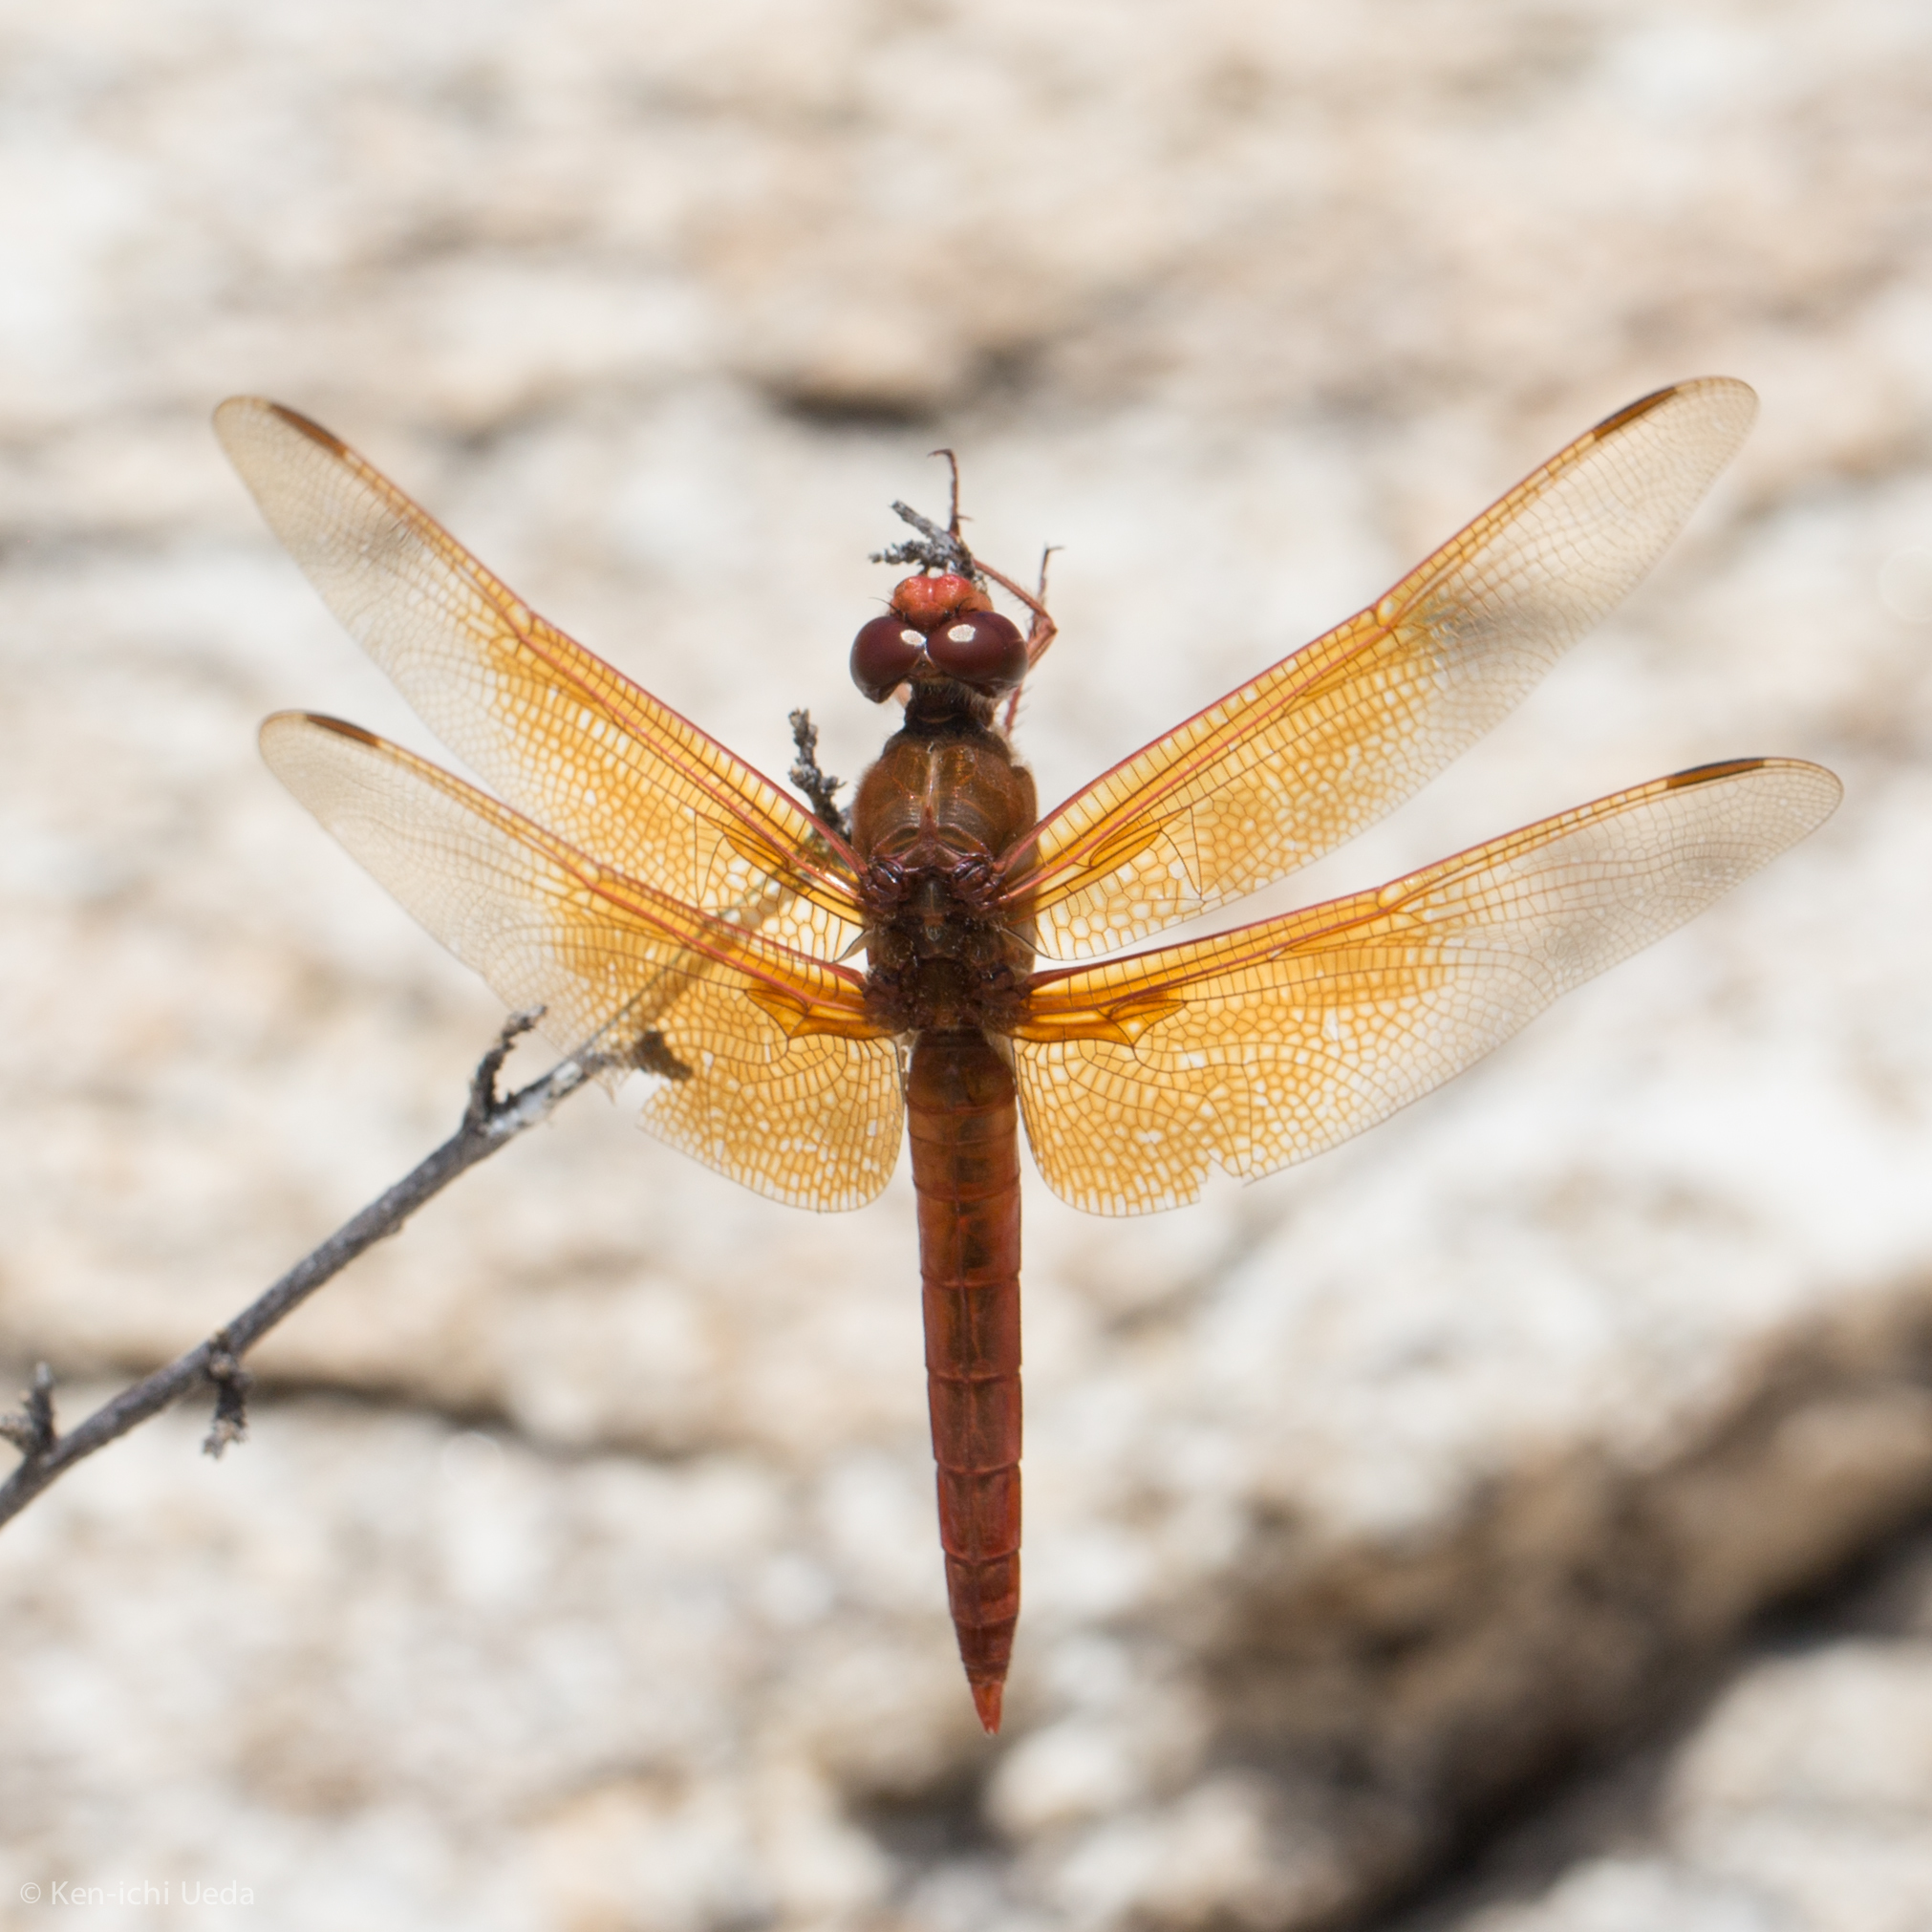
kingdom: Animalia
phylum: Arthropoda
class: Insecta
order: Odonata
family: Libellulidae
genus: Libellula
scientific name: Libellula saturata
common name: Flame skimmer
